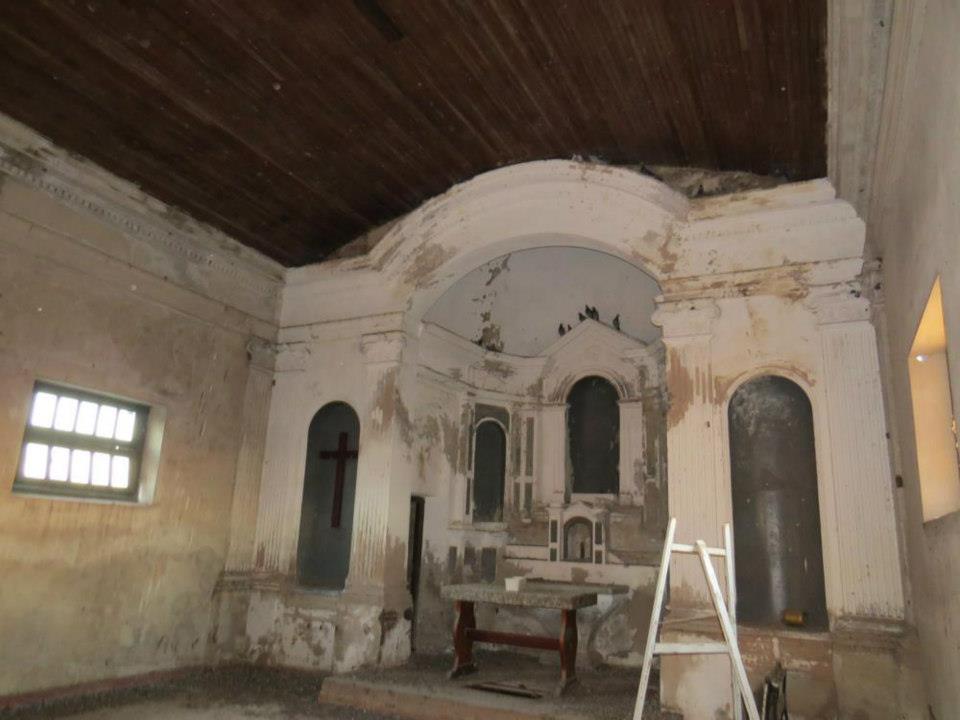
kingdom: Animalia
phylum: Chordata
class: Aves
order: Columbiformes
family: Columbidae
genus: Columba
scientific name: Columba livia
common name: Rock pigeon
